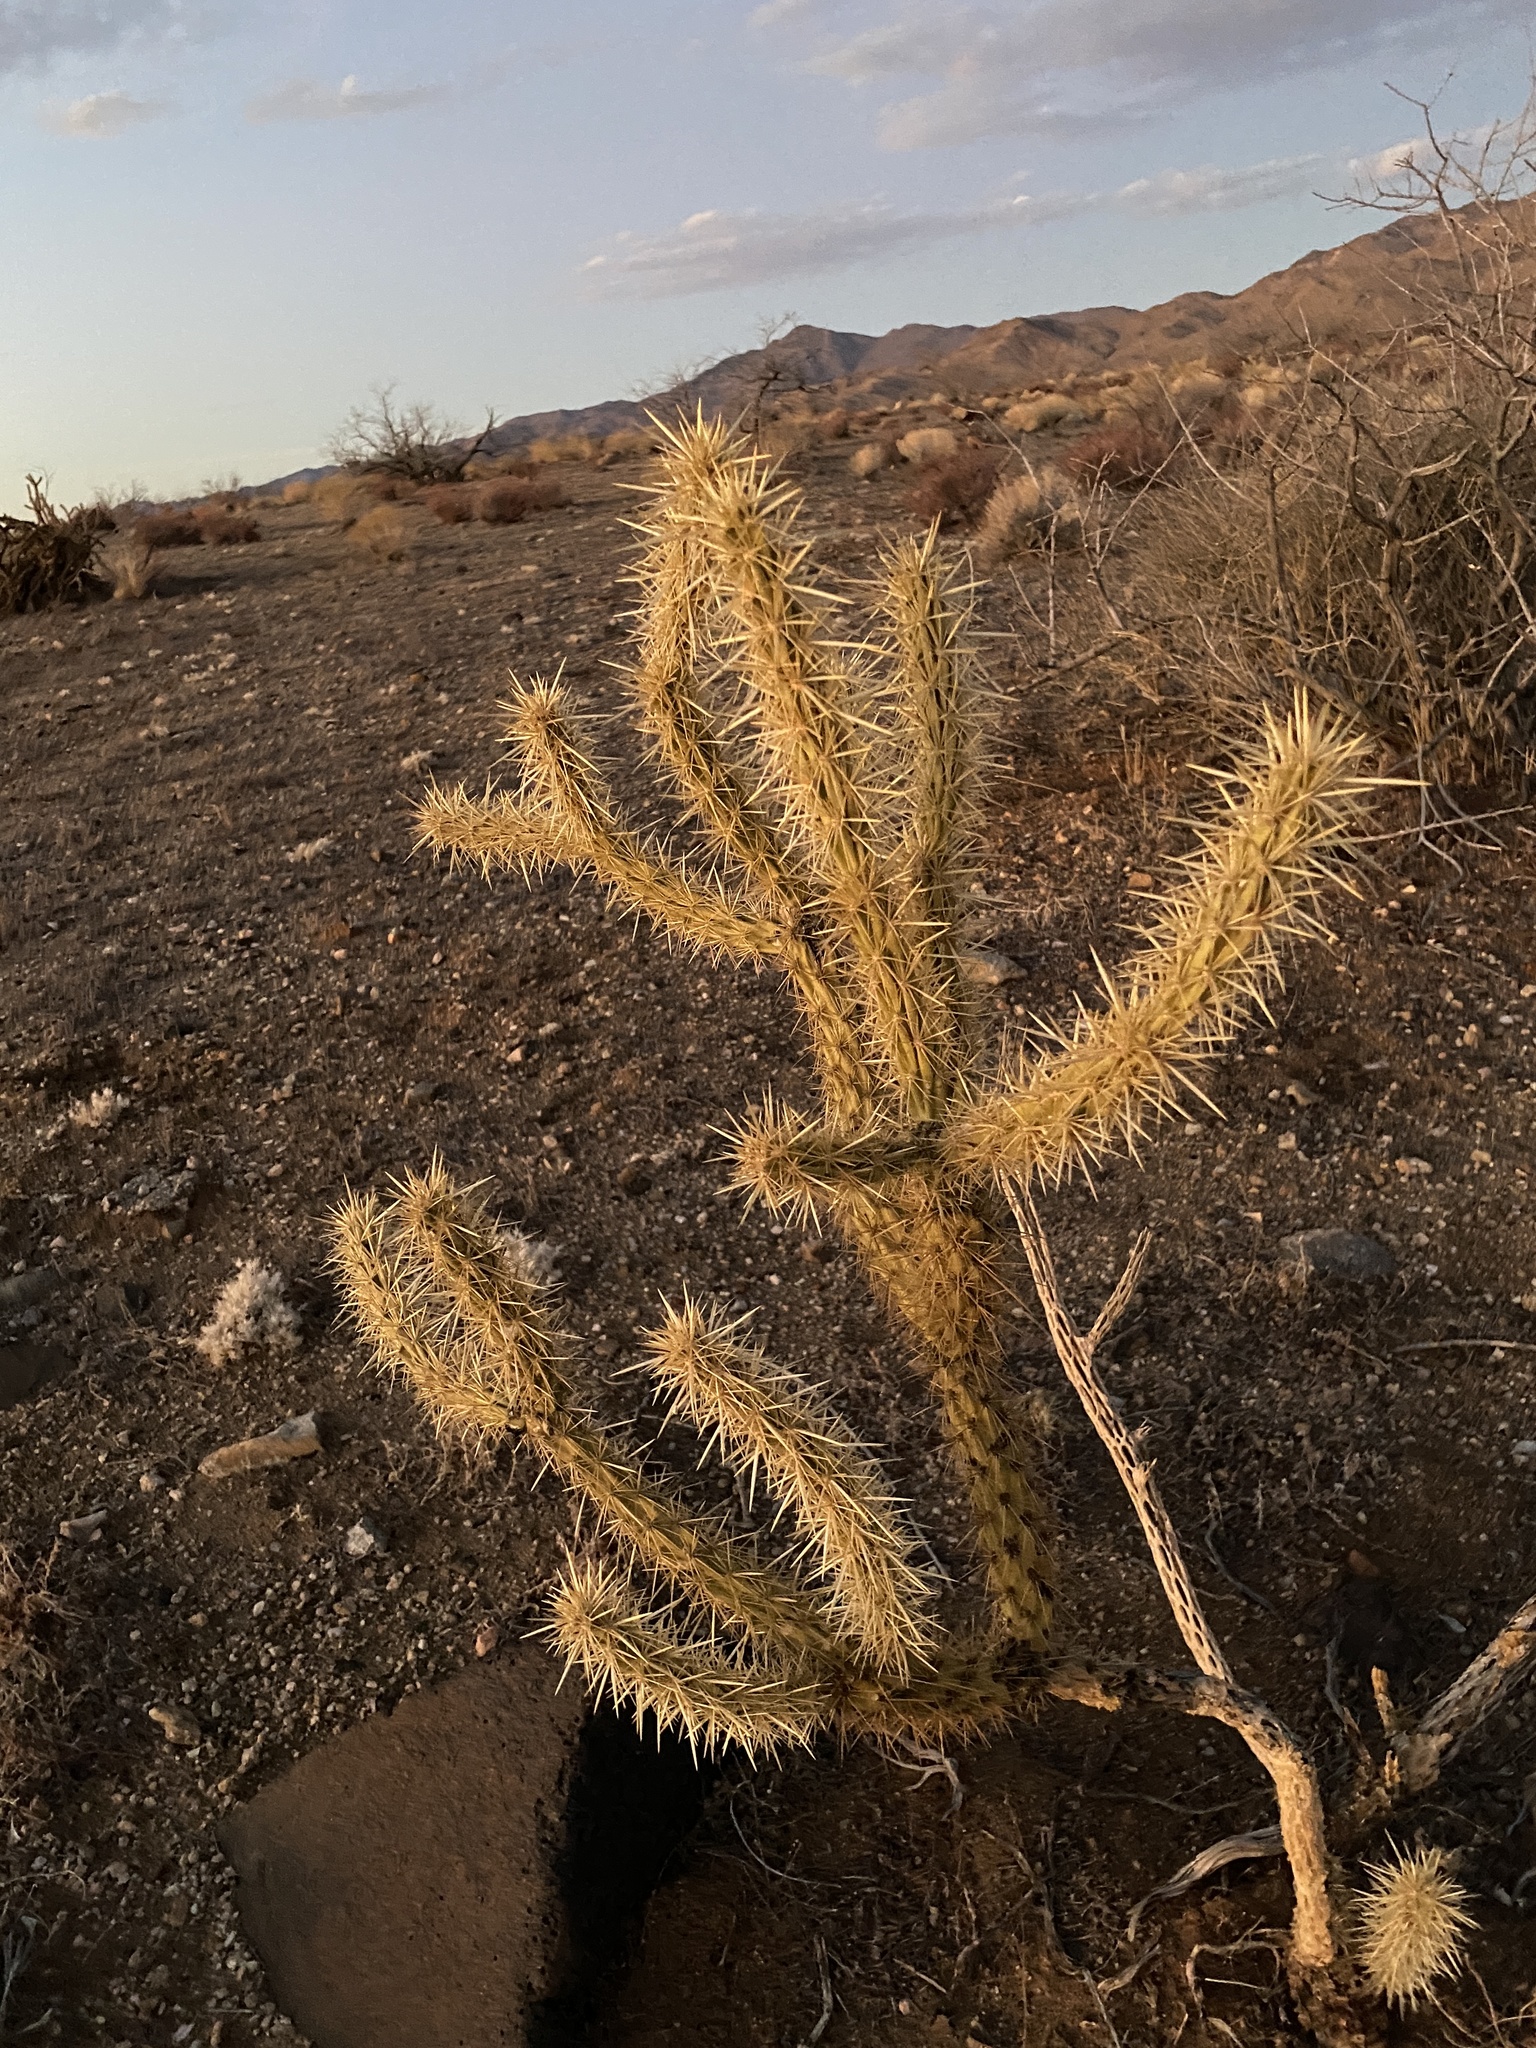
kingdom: Plantae
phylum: Tracheophyta
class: Magnoliopsida
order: Caryophyllales
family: Cactaceae
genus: Cylindropuntia
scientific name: Cylindropuntia acanthocarpa
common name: Buckhorn cholla
